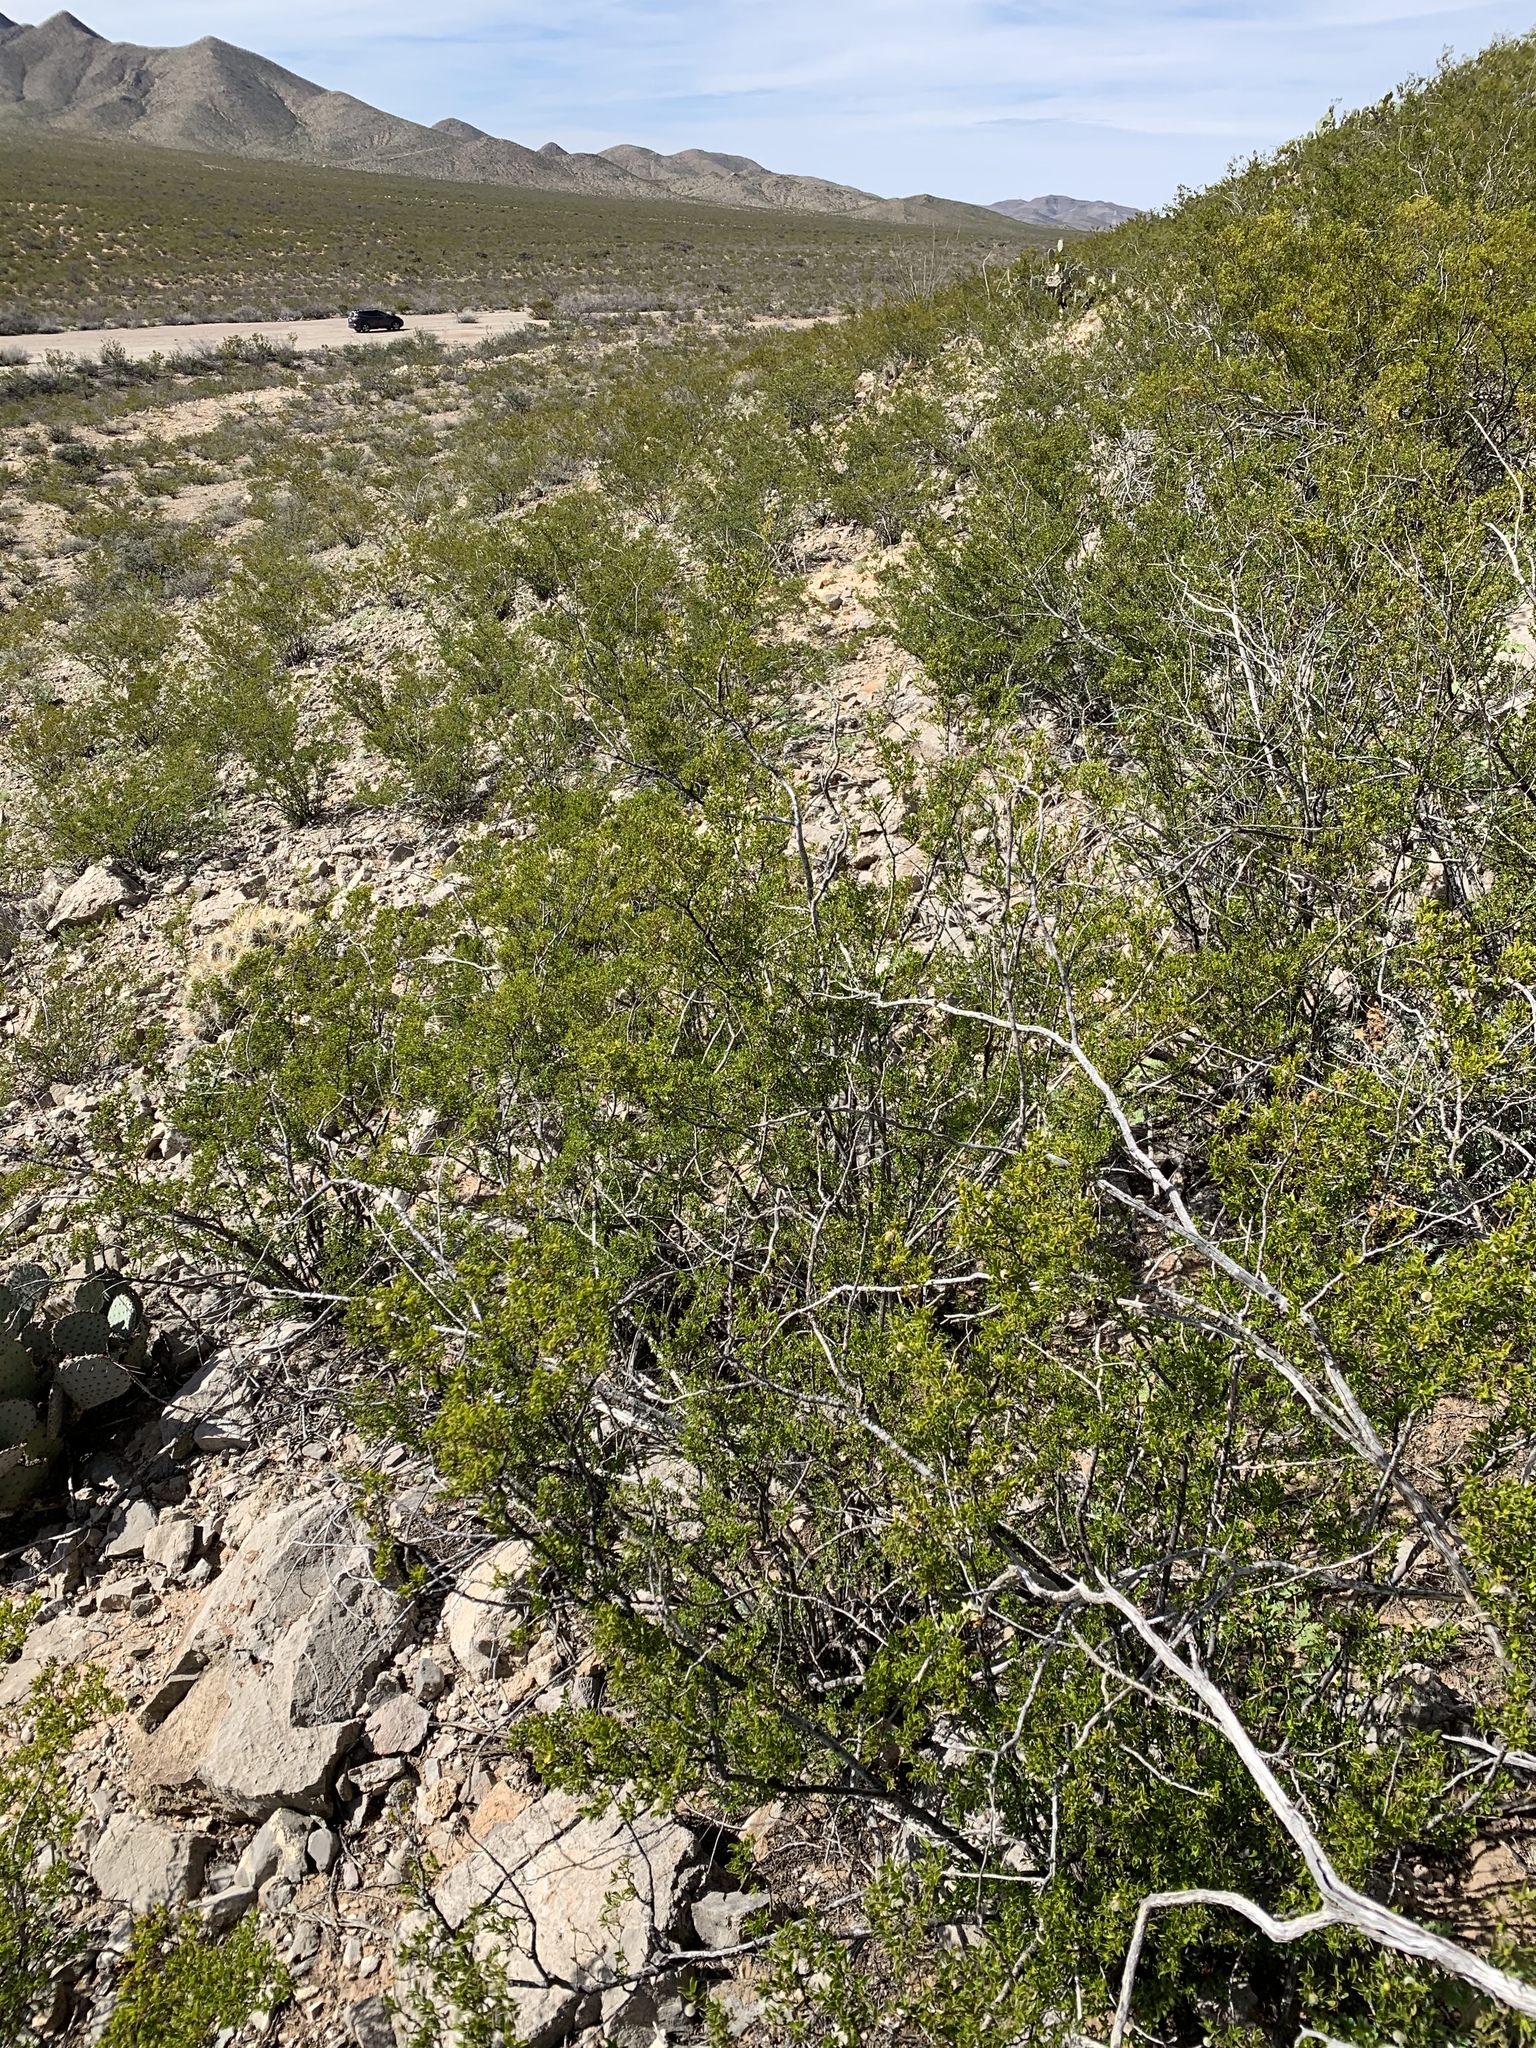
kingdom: Plantae
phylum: Tracheophyta
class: Magnoliopsida
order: Zygophyllales
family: Zygophyllaceae
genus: Larrea
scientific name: Larrea tridentata
